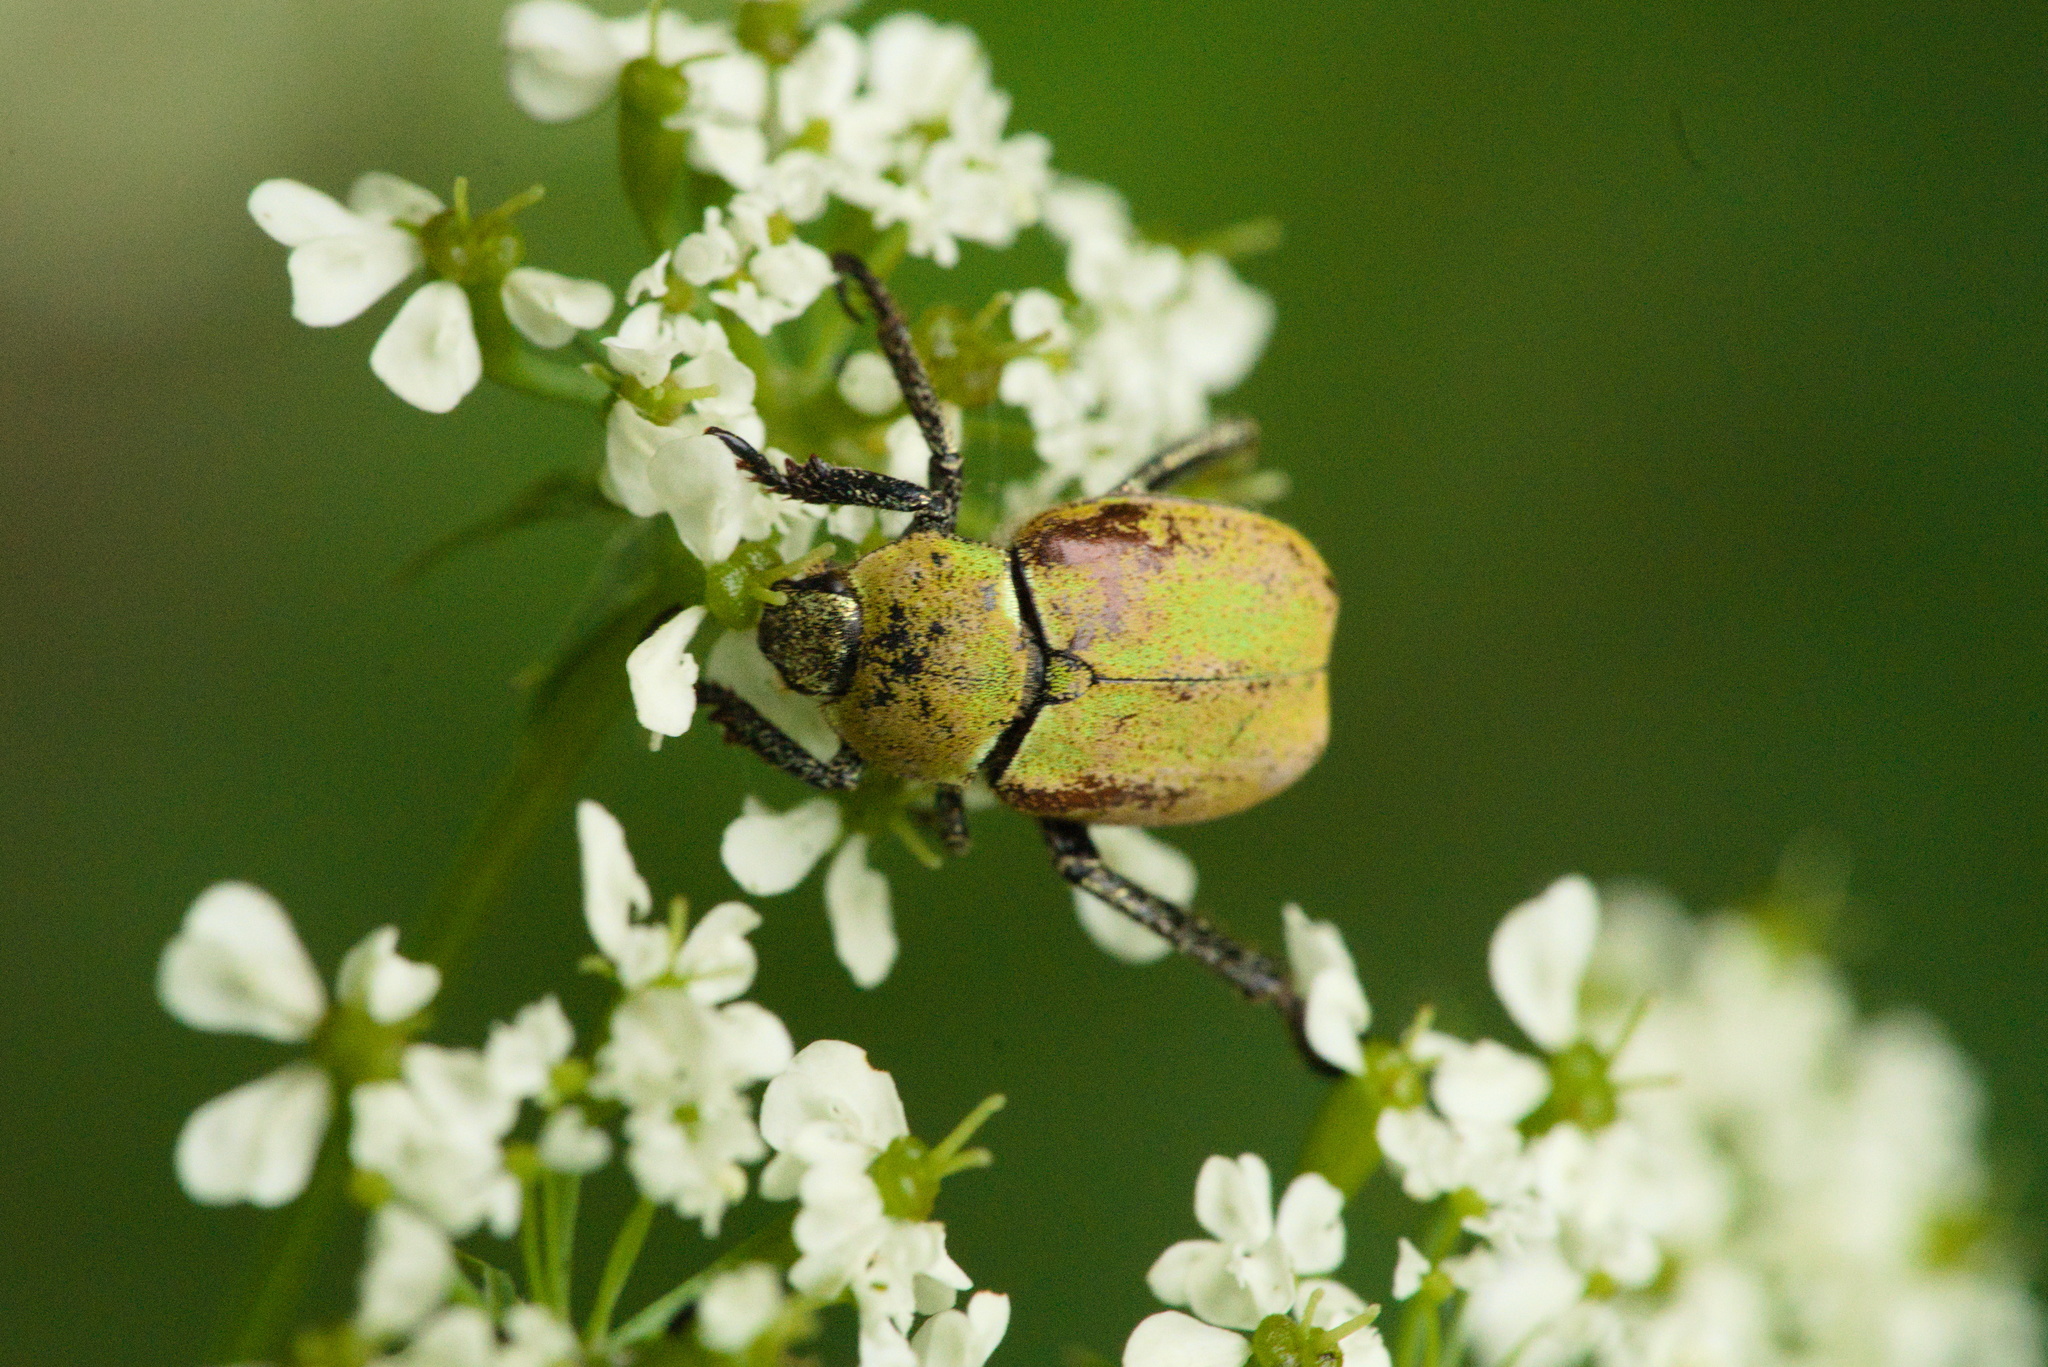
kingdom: Animalia
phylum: Arthropoda
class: Insecta
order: Coleoptera
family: Scarabaeidae
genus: Hoplia
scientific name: Hoplia argentea
